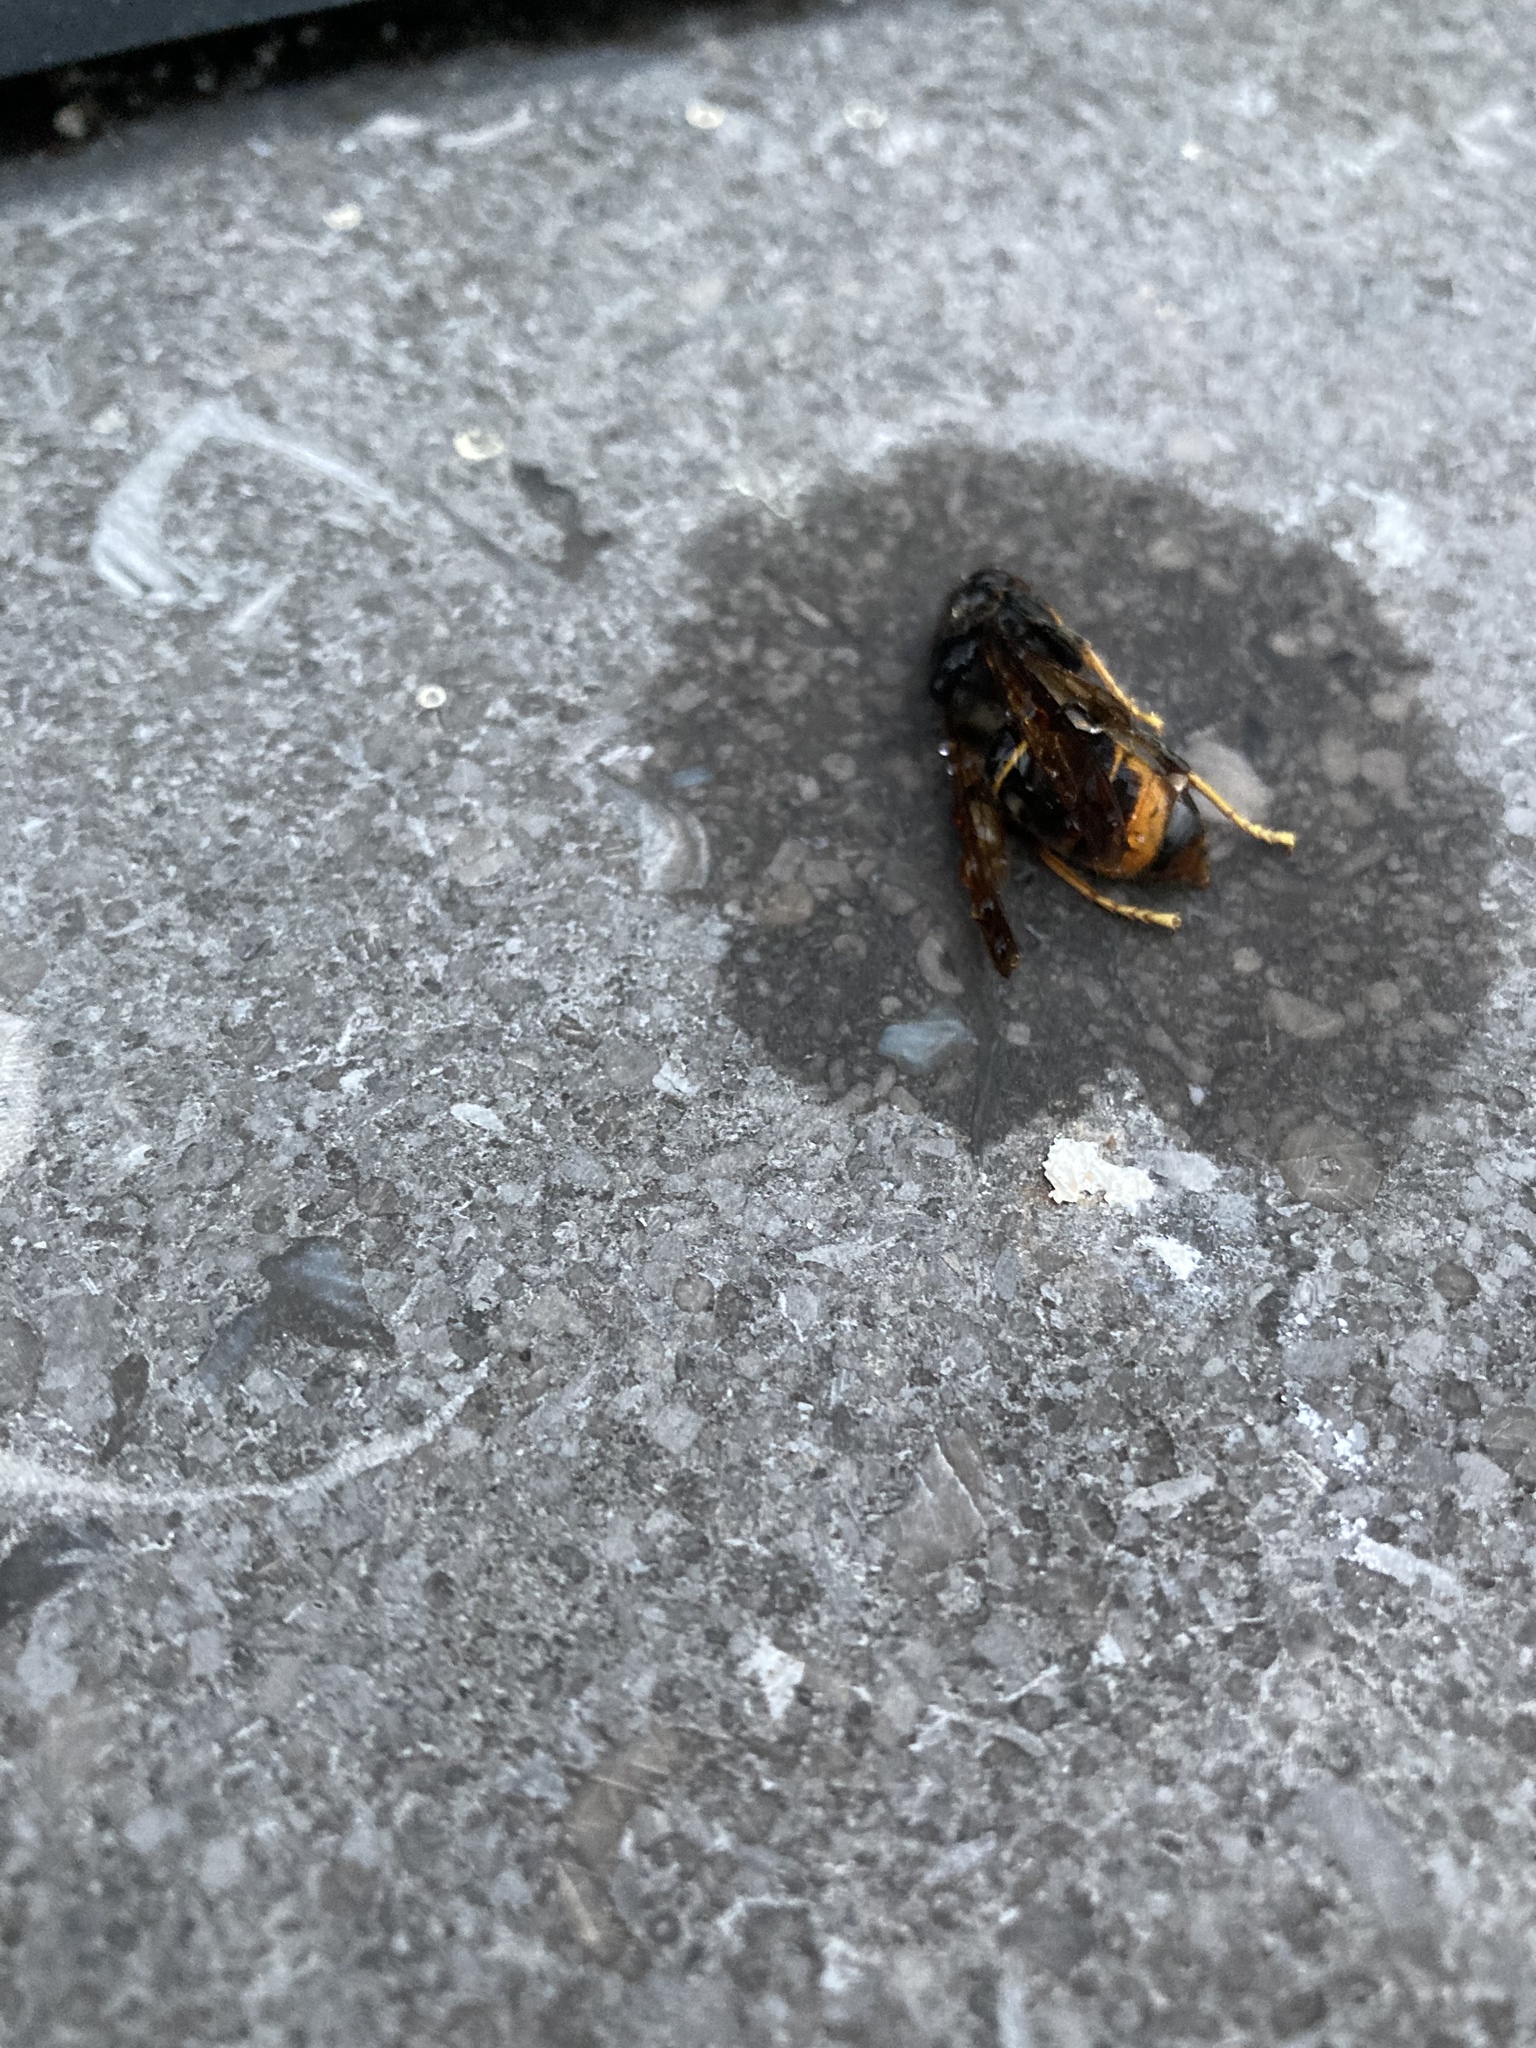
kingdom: Animalia
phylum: Arthropoda
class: Insecta
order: Hymenoptera
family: Vespidae
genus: Vespa
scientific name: Vespa velutina
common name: Asian hornet
